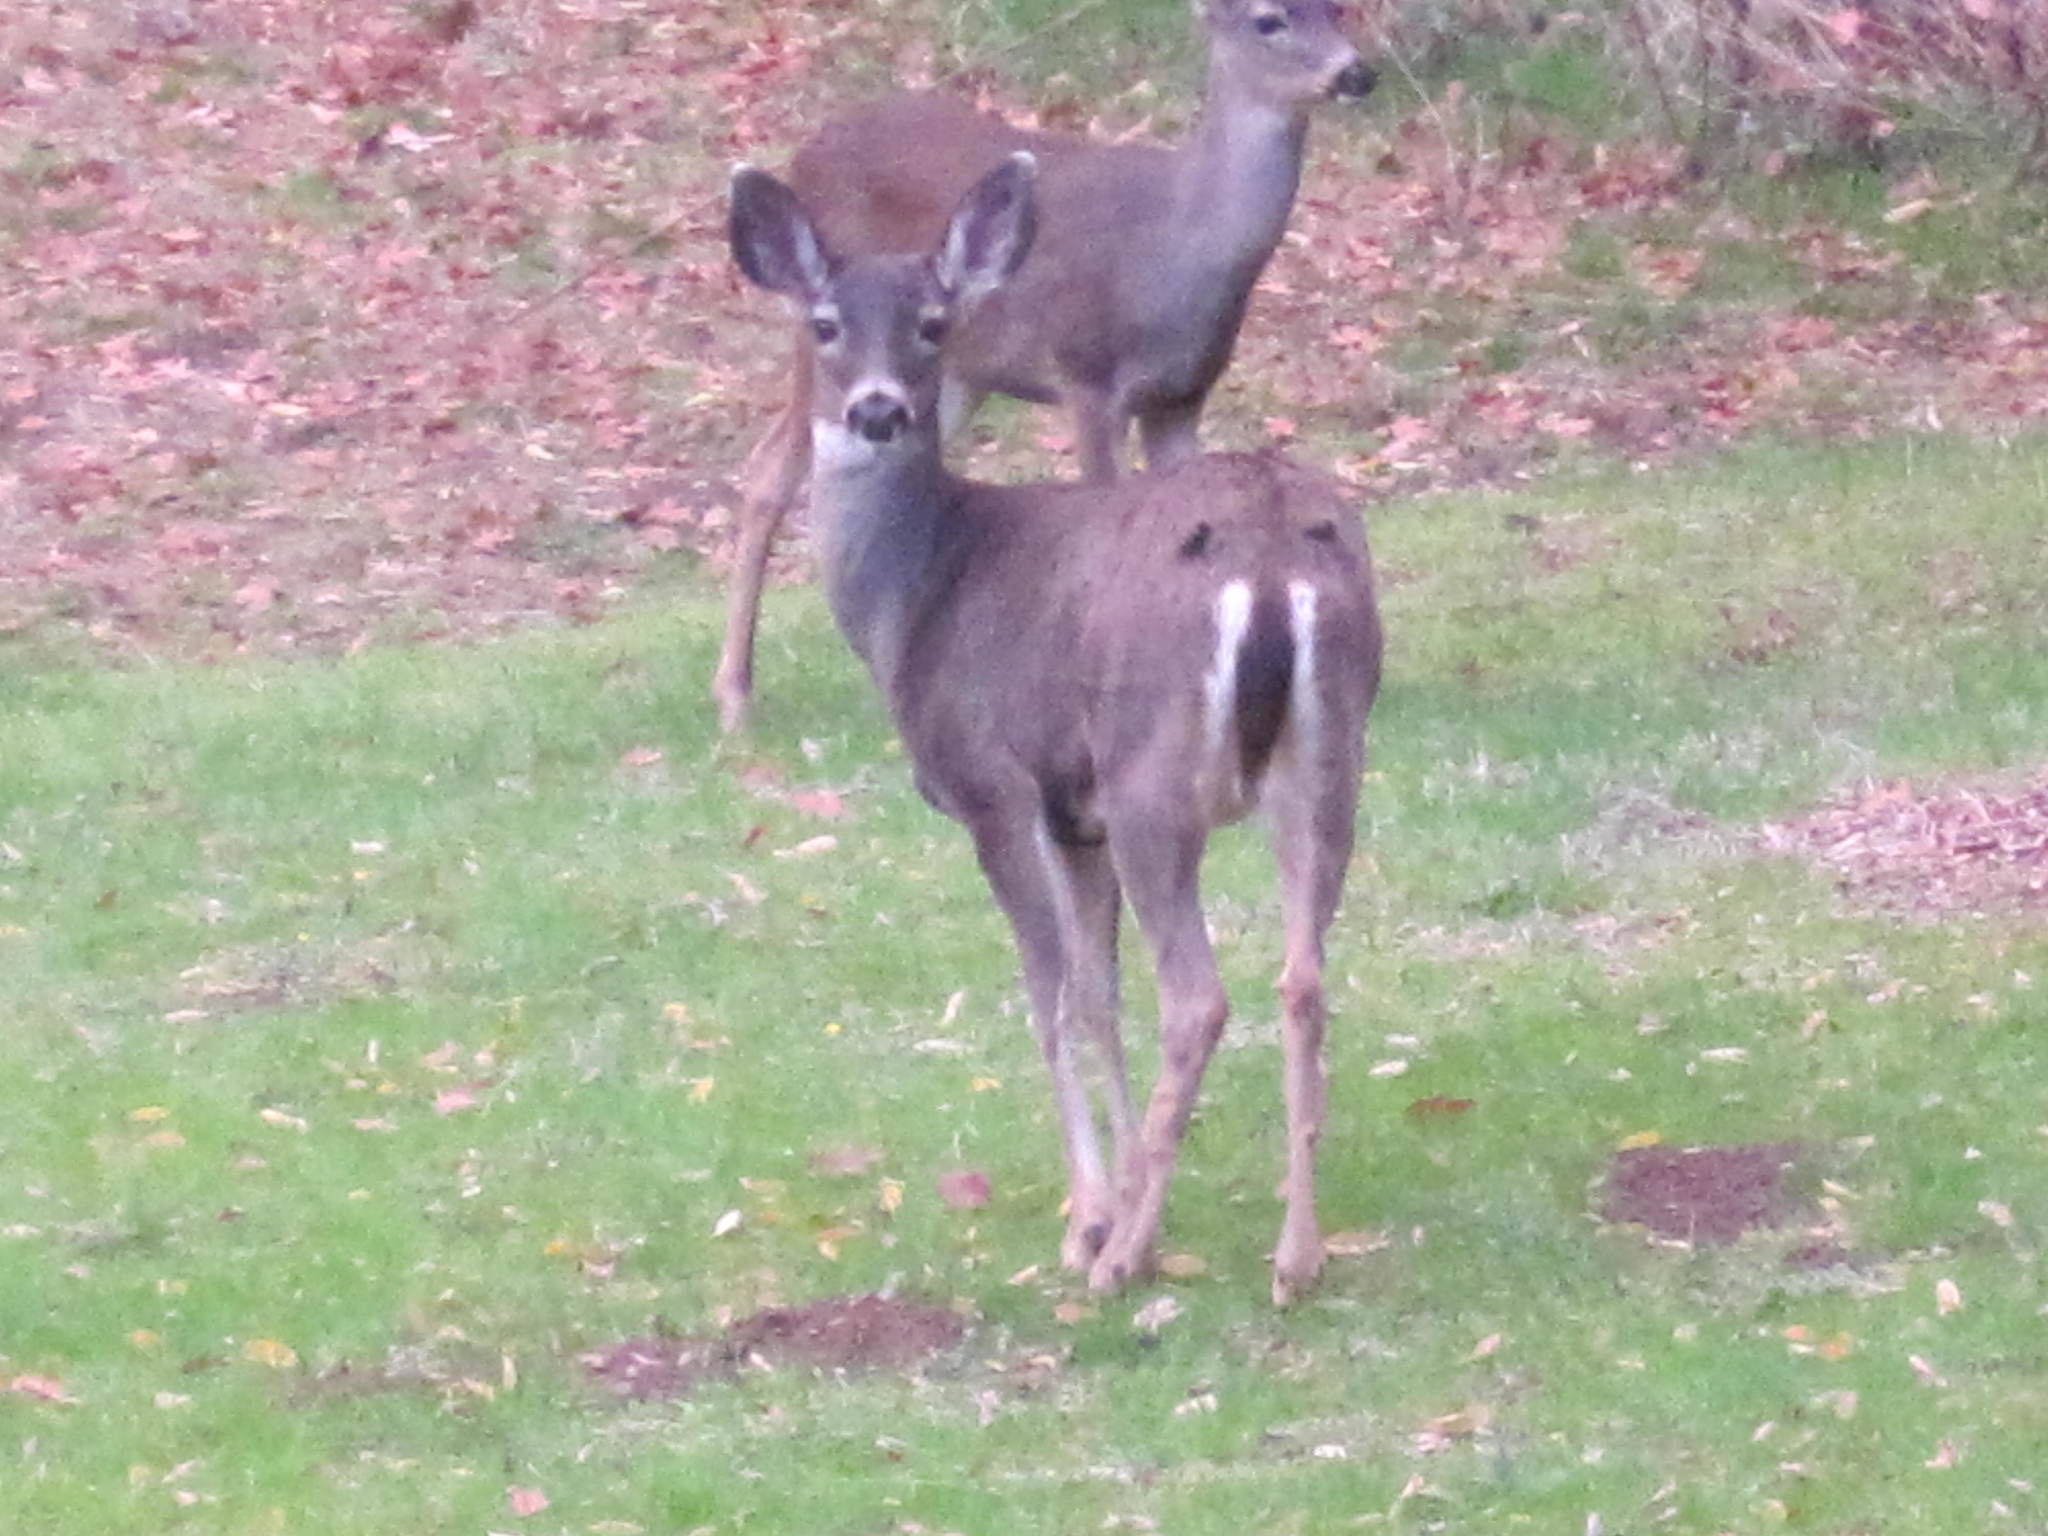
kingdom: Animalia
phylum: Chordata
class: Mammalia
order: Artiodactyla
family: Cervidae
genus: Odocoileus
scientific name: Odocoileus hemionus
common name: Mule deer
